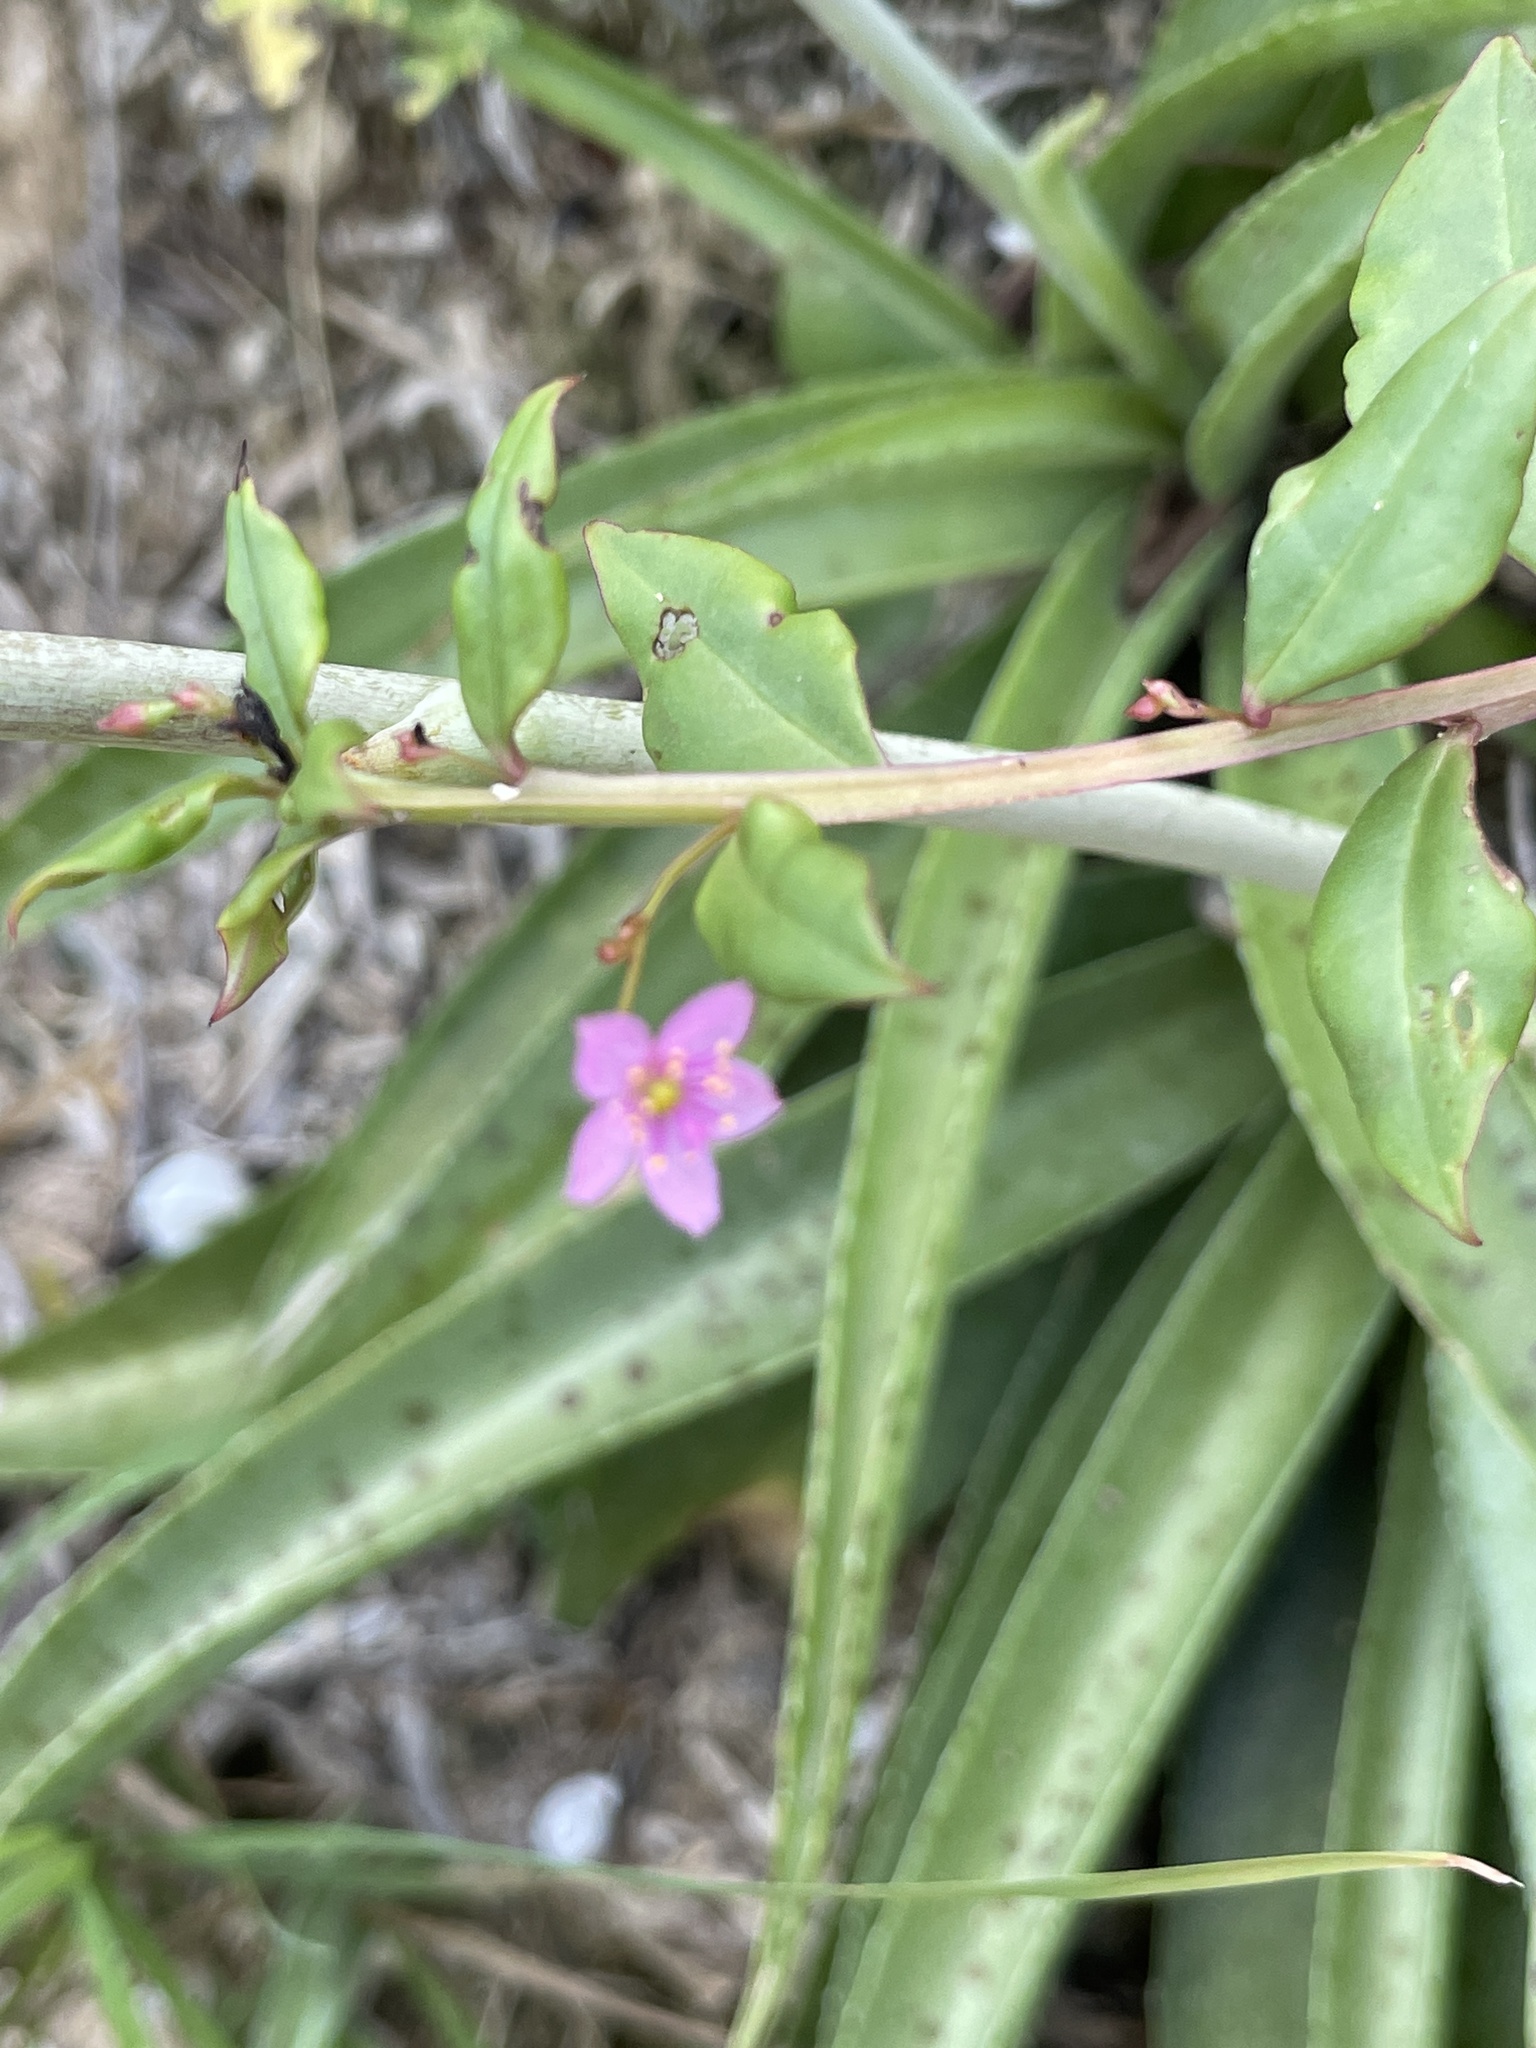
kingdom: Plantae
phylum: Tracheophyta
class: Magnoliopsida
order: Caryophyllales
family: Talinaceae
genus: Talinum
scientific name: Talinum paniculatum
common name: Jewels of opar
